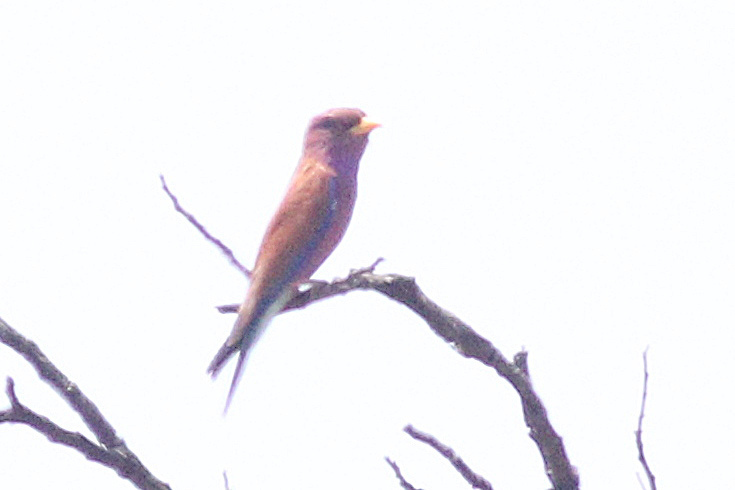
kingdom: Animalia
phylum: Chordata
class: Aves
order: Coraciiformes
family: Coraciidae
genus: Eurystomus
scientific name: Eurystomus glaucurus
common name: Broad-billed roller
